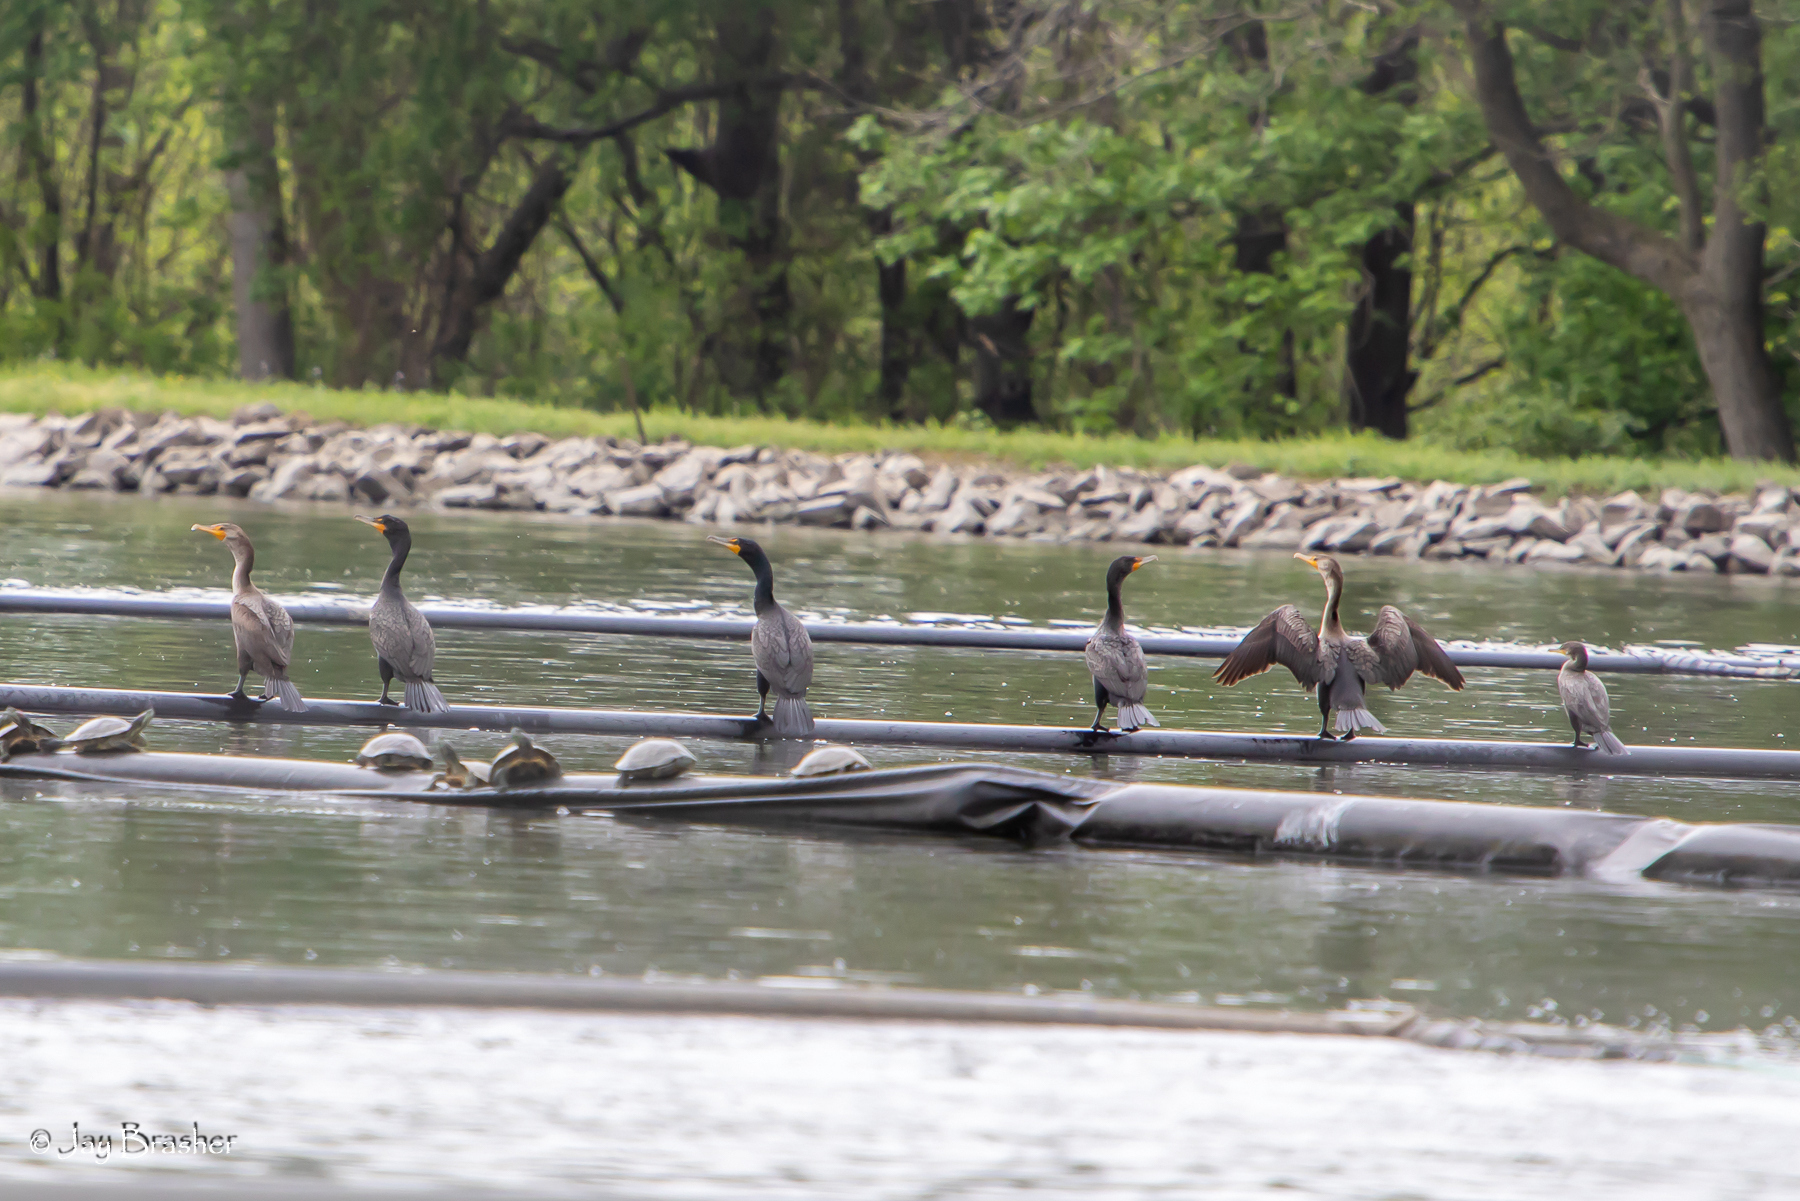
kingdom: Animalia
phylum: Chordata
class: Aves
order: Suliformes
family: Phalacrocoracidae
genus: Phalacrocorax
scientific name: Phalacrocorax auritus
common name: Double-crested cormorant
